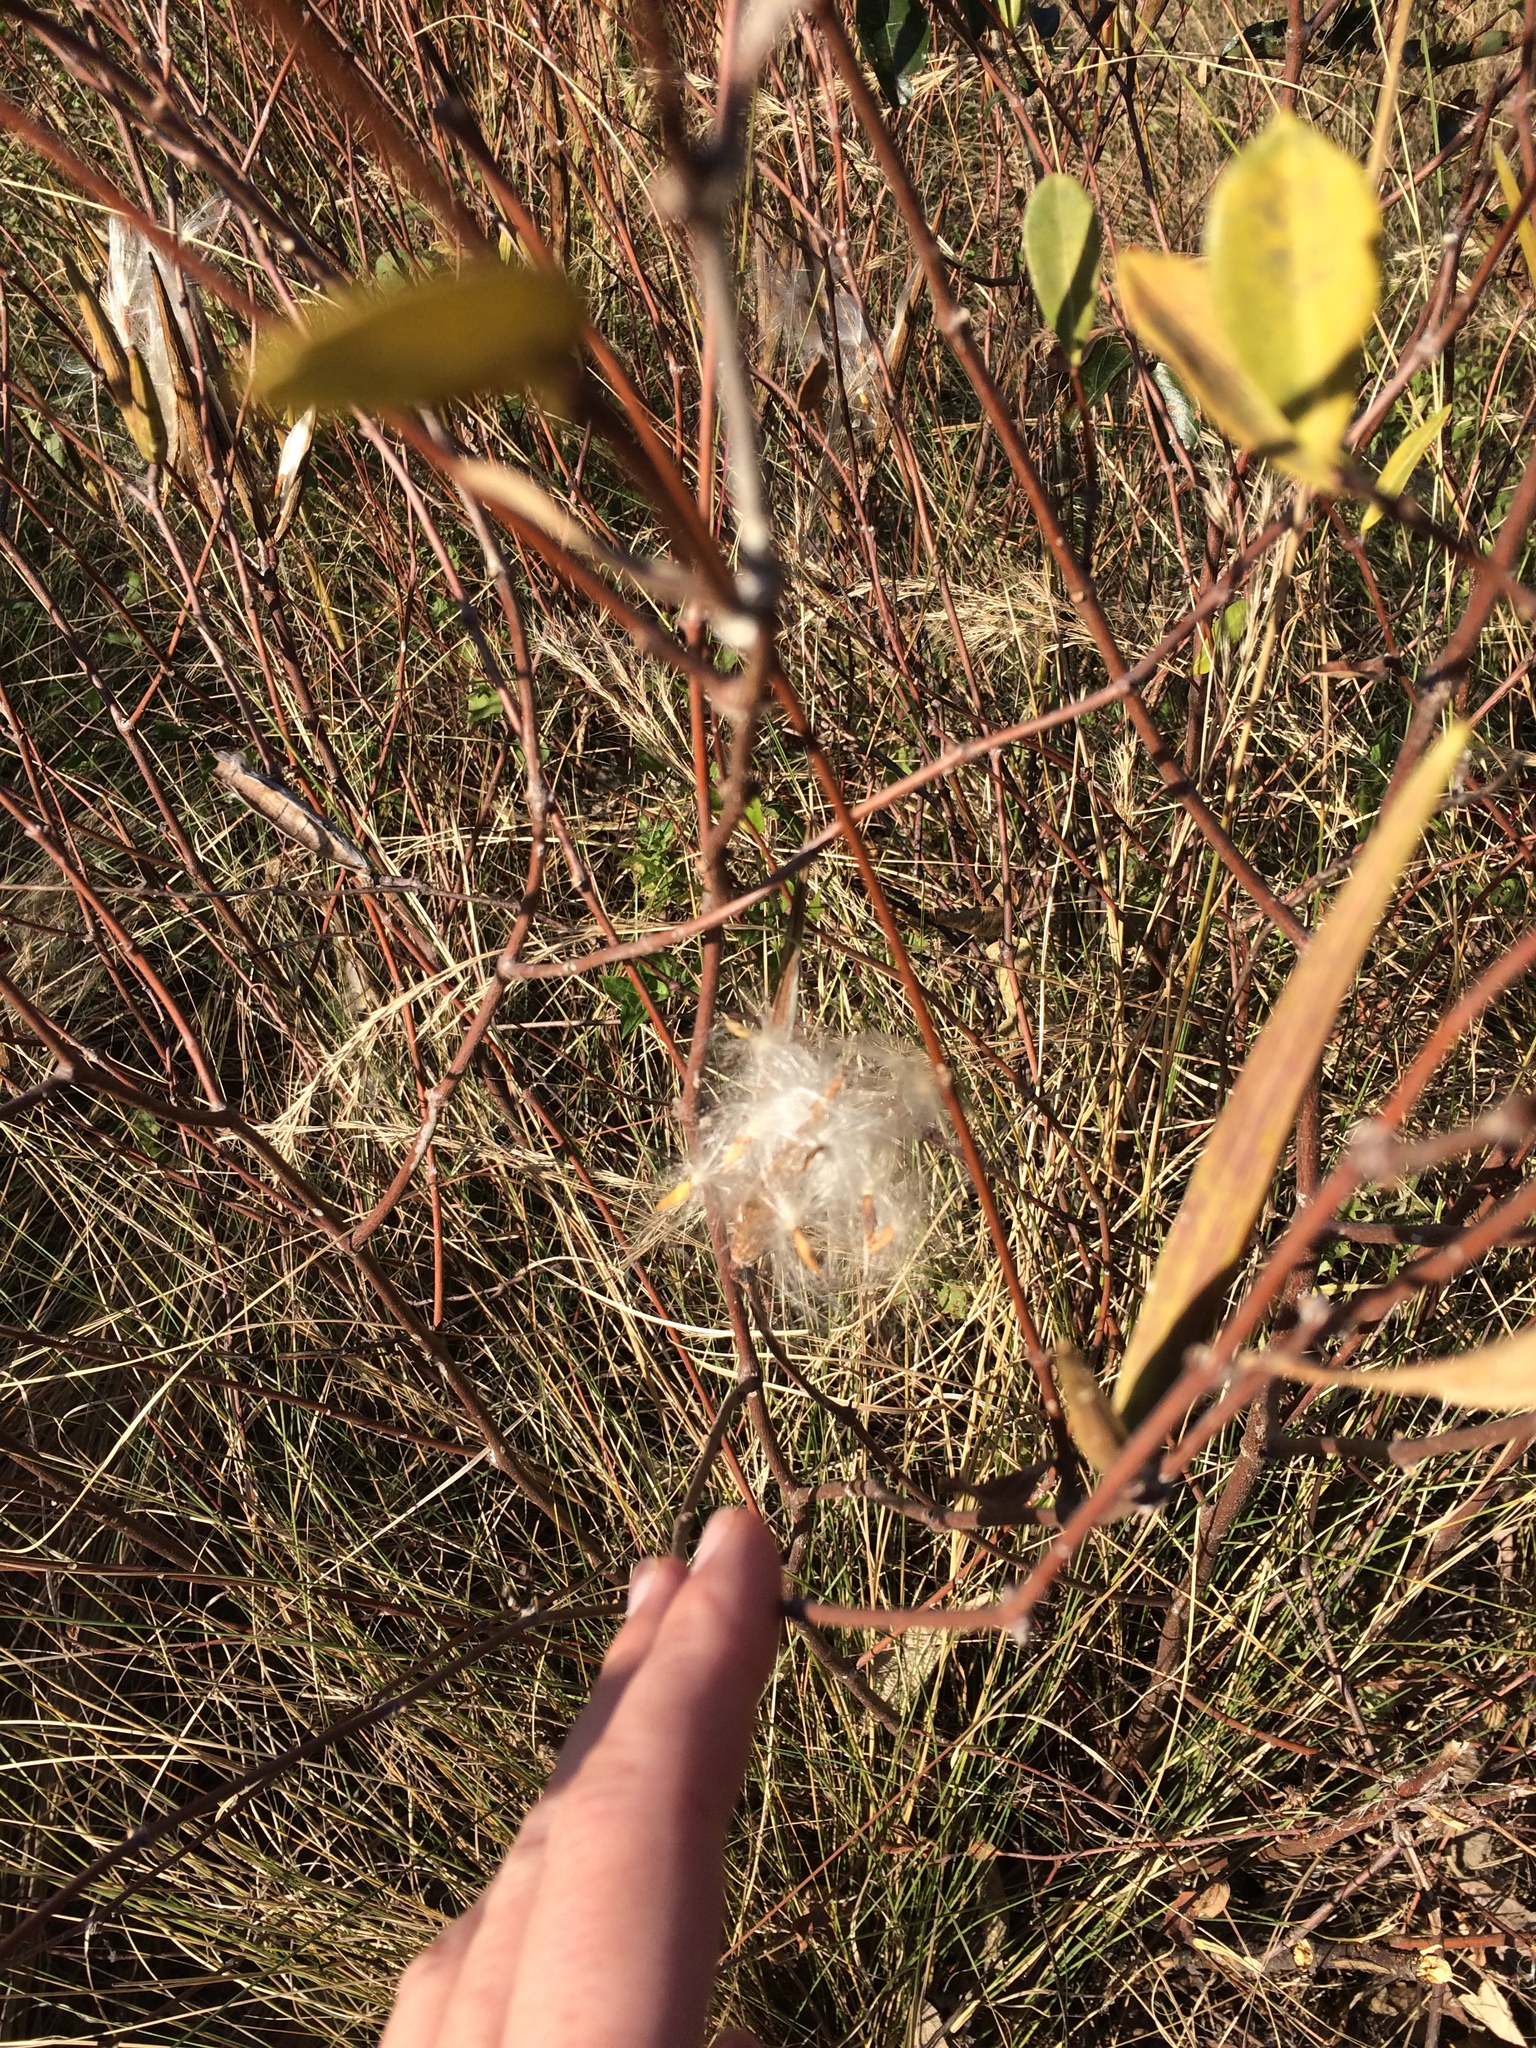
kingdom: Plantae
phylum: Tracheophyta
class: Magnoliopsida
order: Gentianales
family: Apocynaceae
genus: Cryptolepis
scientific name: Cryptolepis oblongifolia
